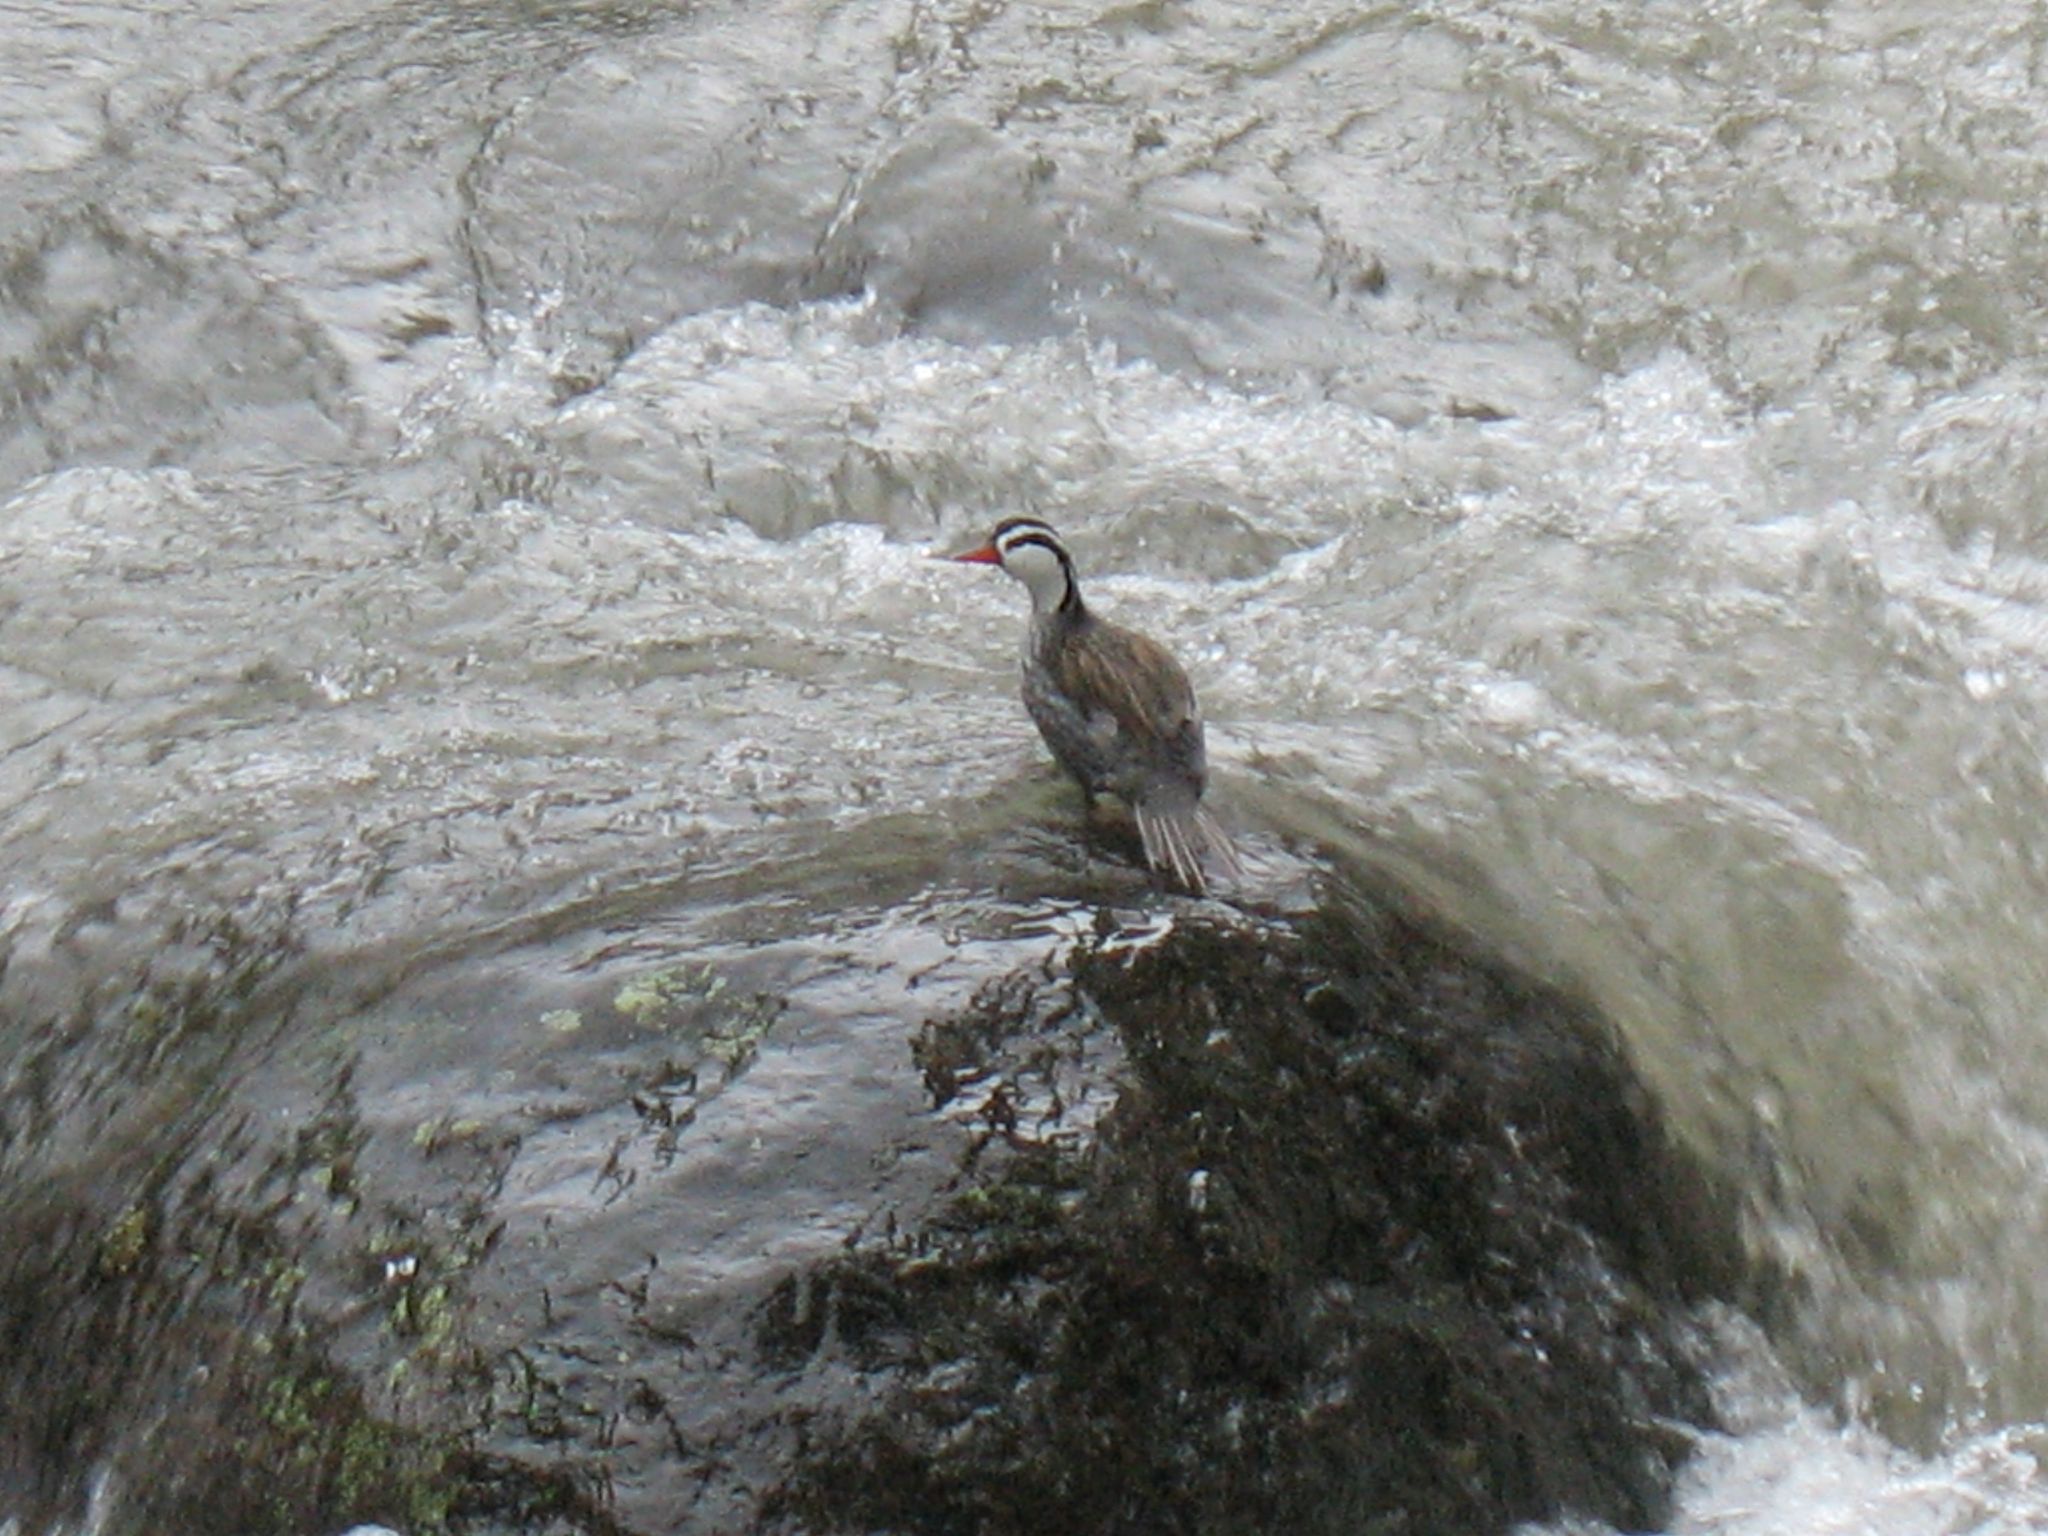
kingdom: Animalia
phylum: Chordata
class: Aves
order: Anseriformes
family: Anatidae
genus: Merganetta
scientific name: Merganetta armata
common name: Torrent duck
